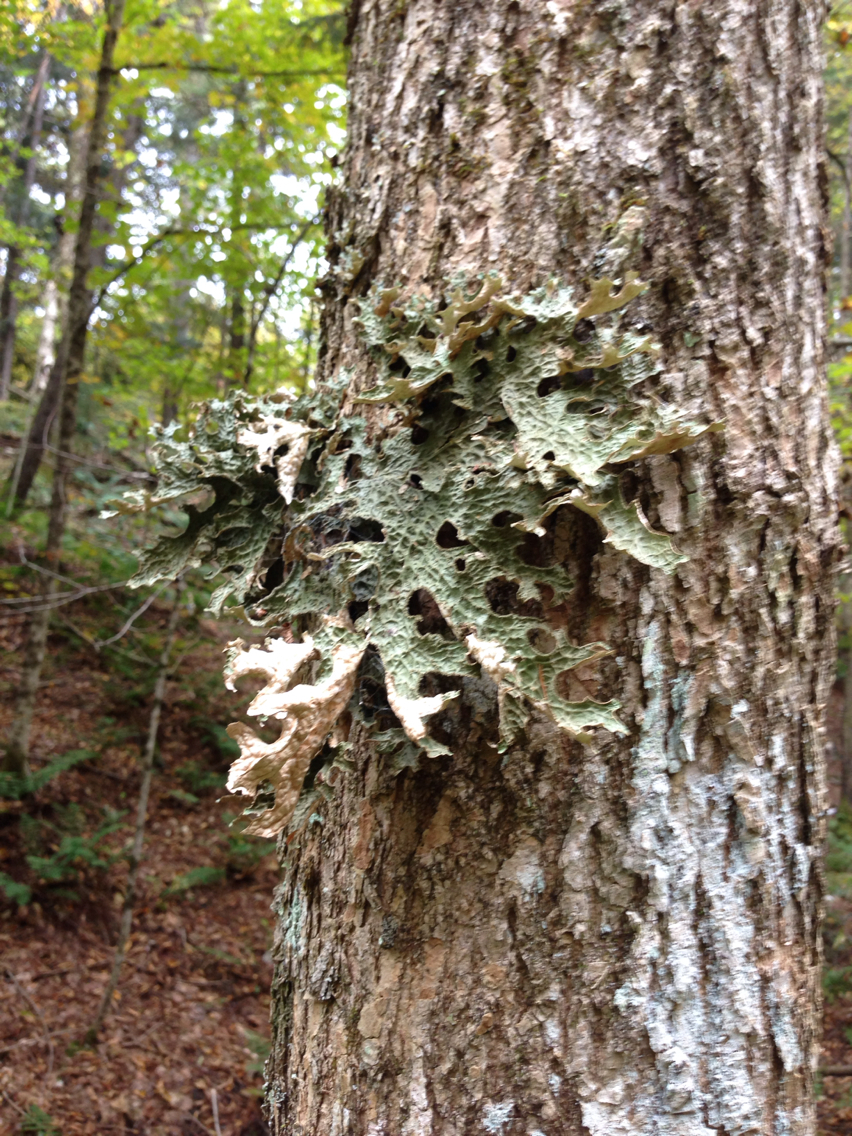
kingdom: Fungi
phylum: Ascomycota
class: Lecanoromycetes
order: Peltigerales
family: Lobariaceae
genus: Lobaria
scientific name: Lobaria pulmonaria
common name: Lungwort
